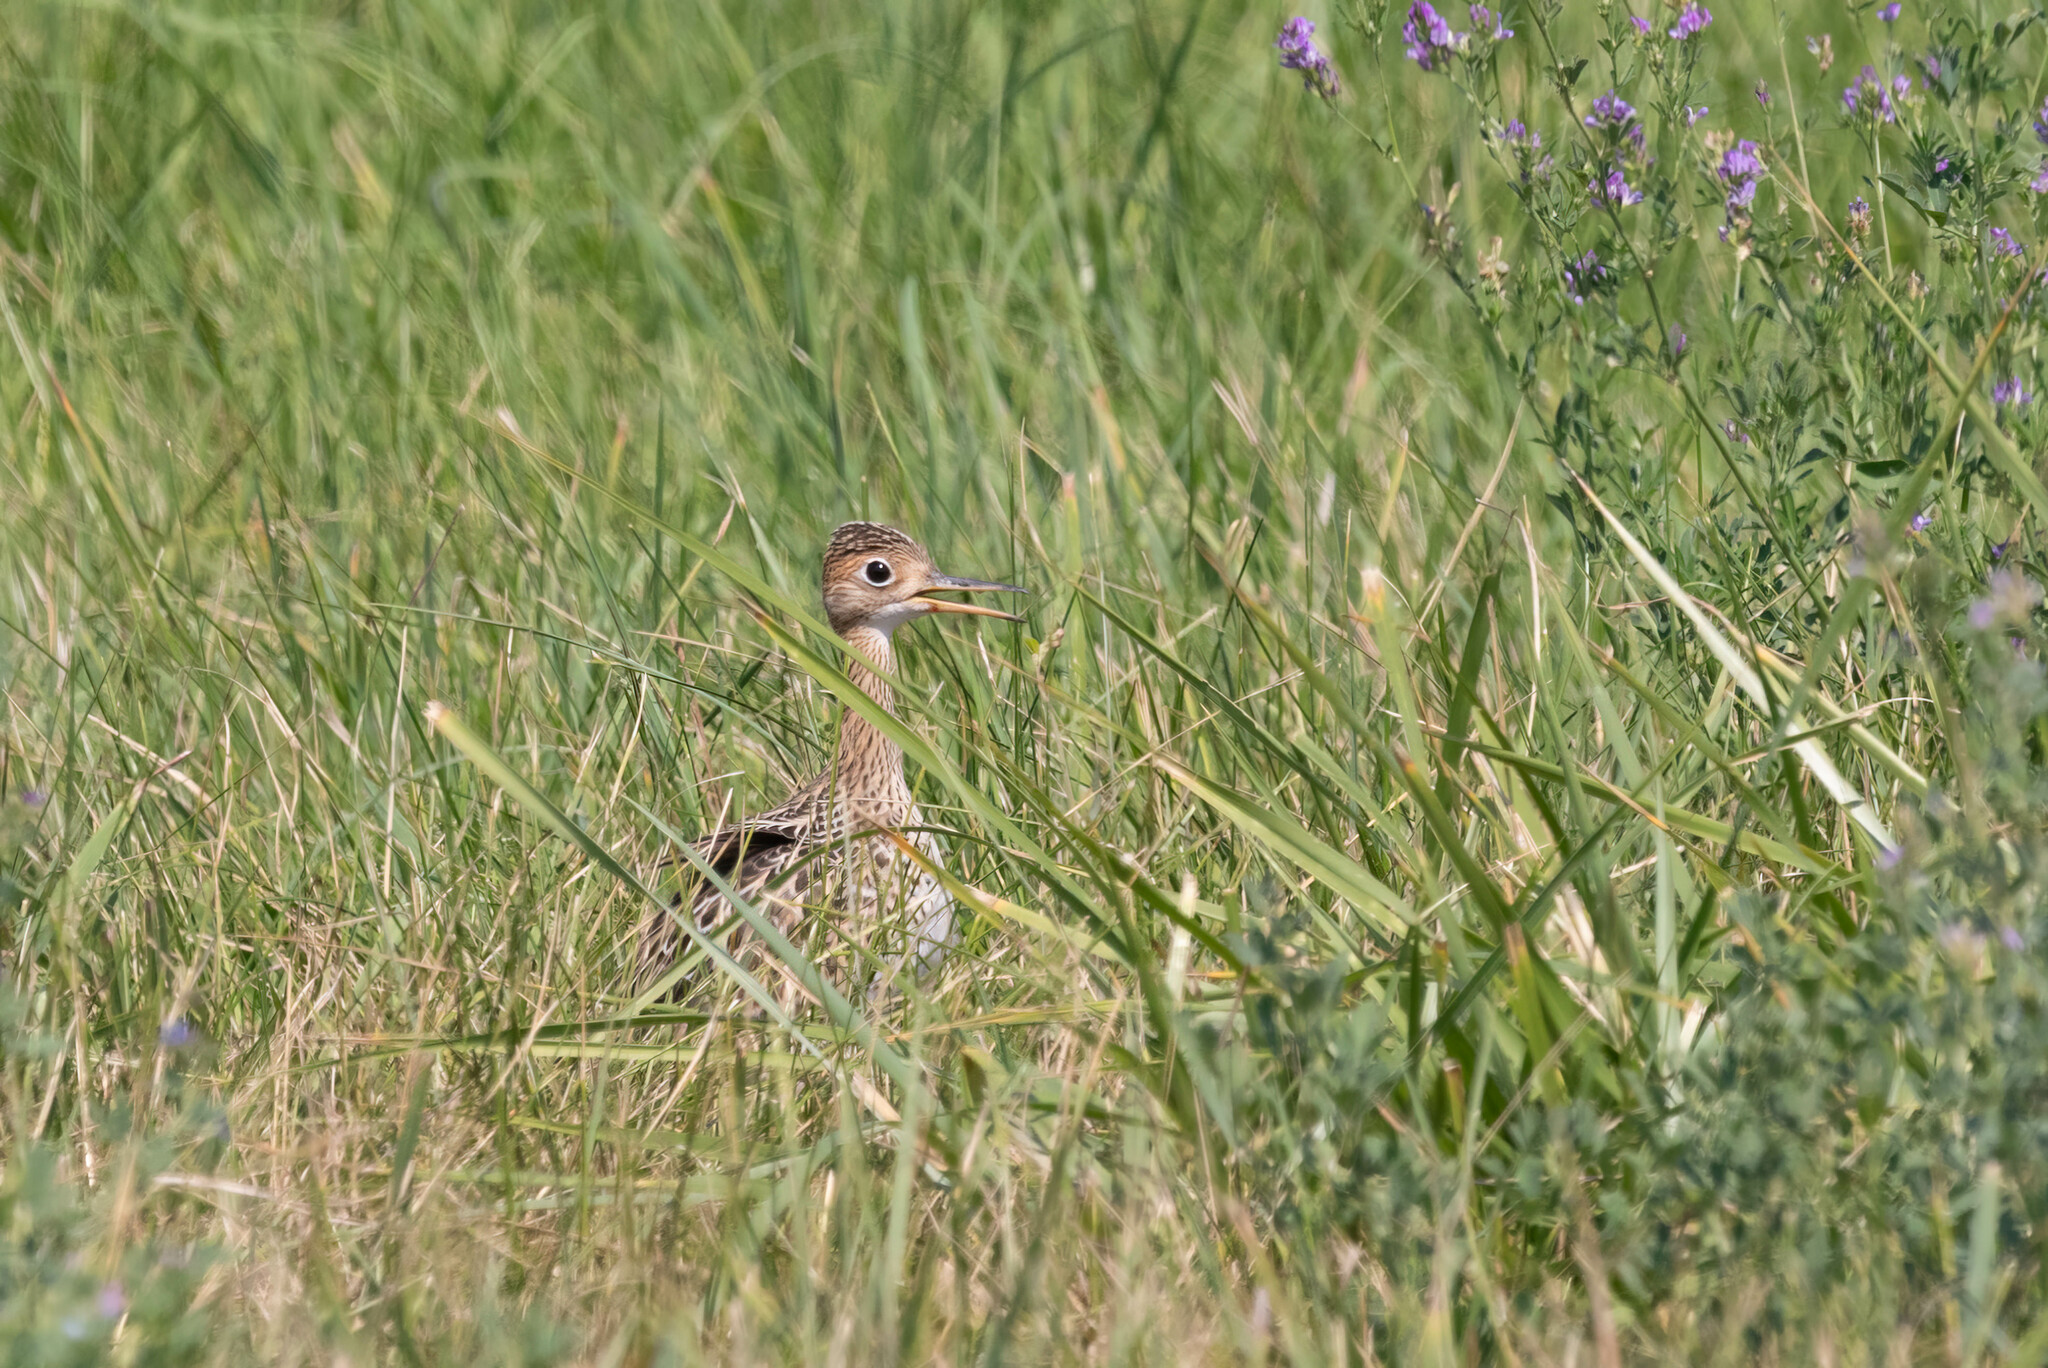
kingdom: Animalia
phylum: Chordata
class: Aves
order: Charadriiformes
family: Scolopacidae
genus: Bartramia
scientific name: Bartramia longicauda
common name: Upland sandpiper
